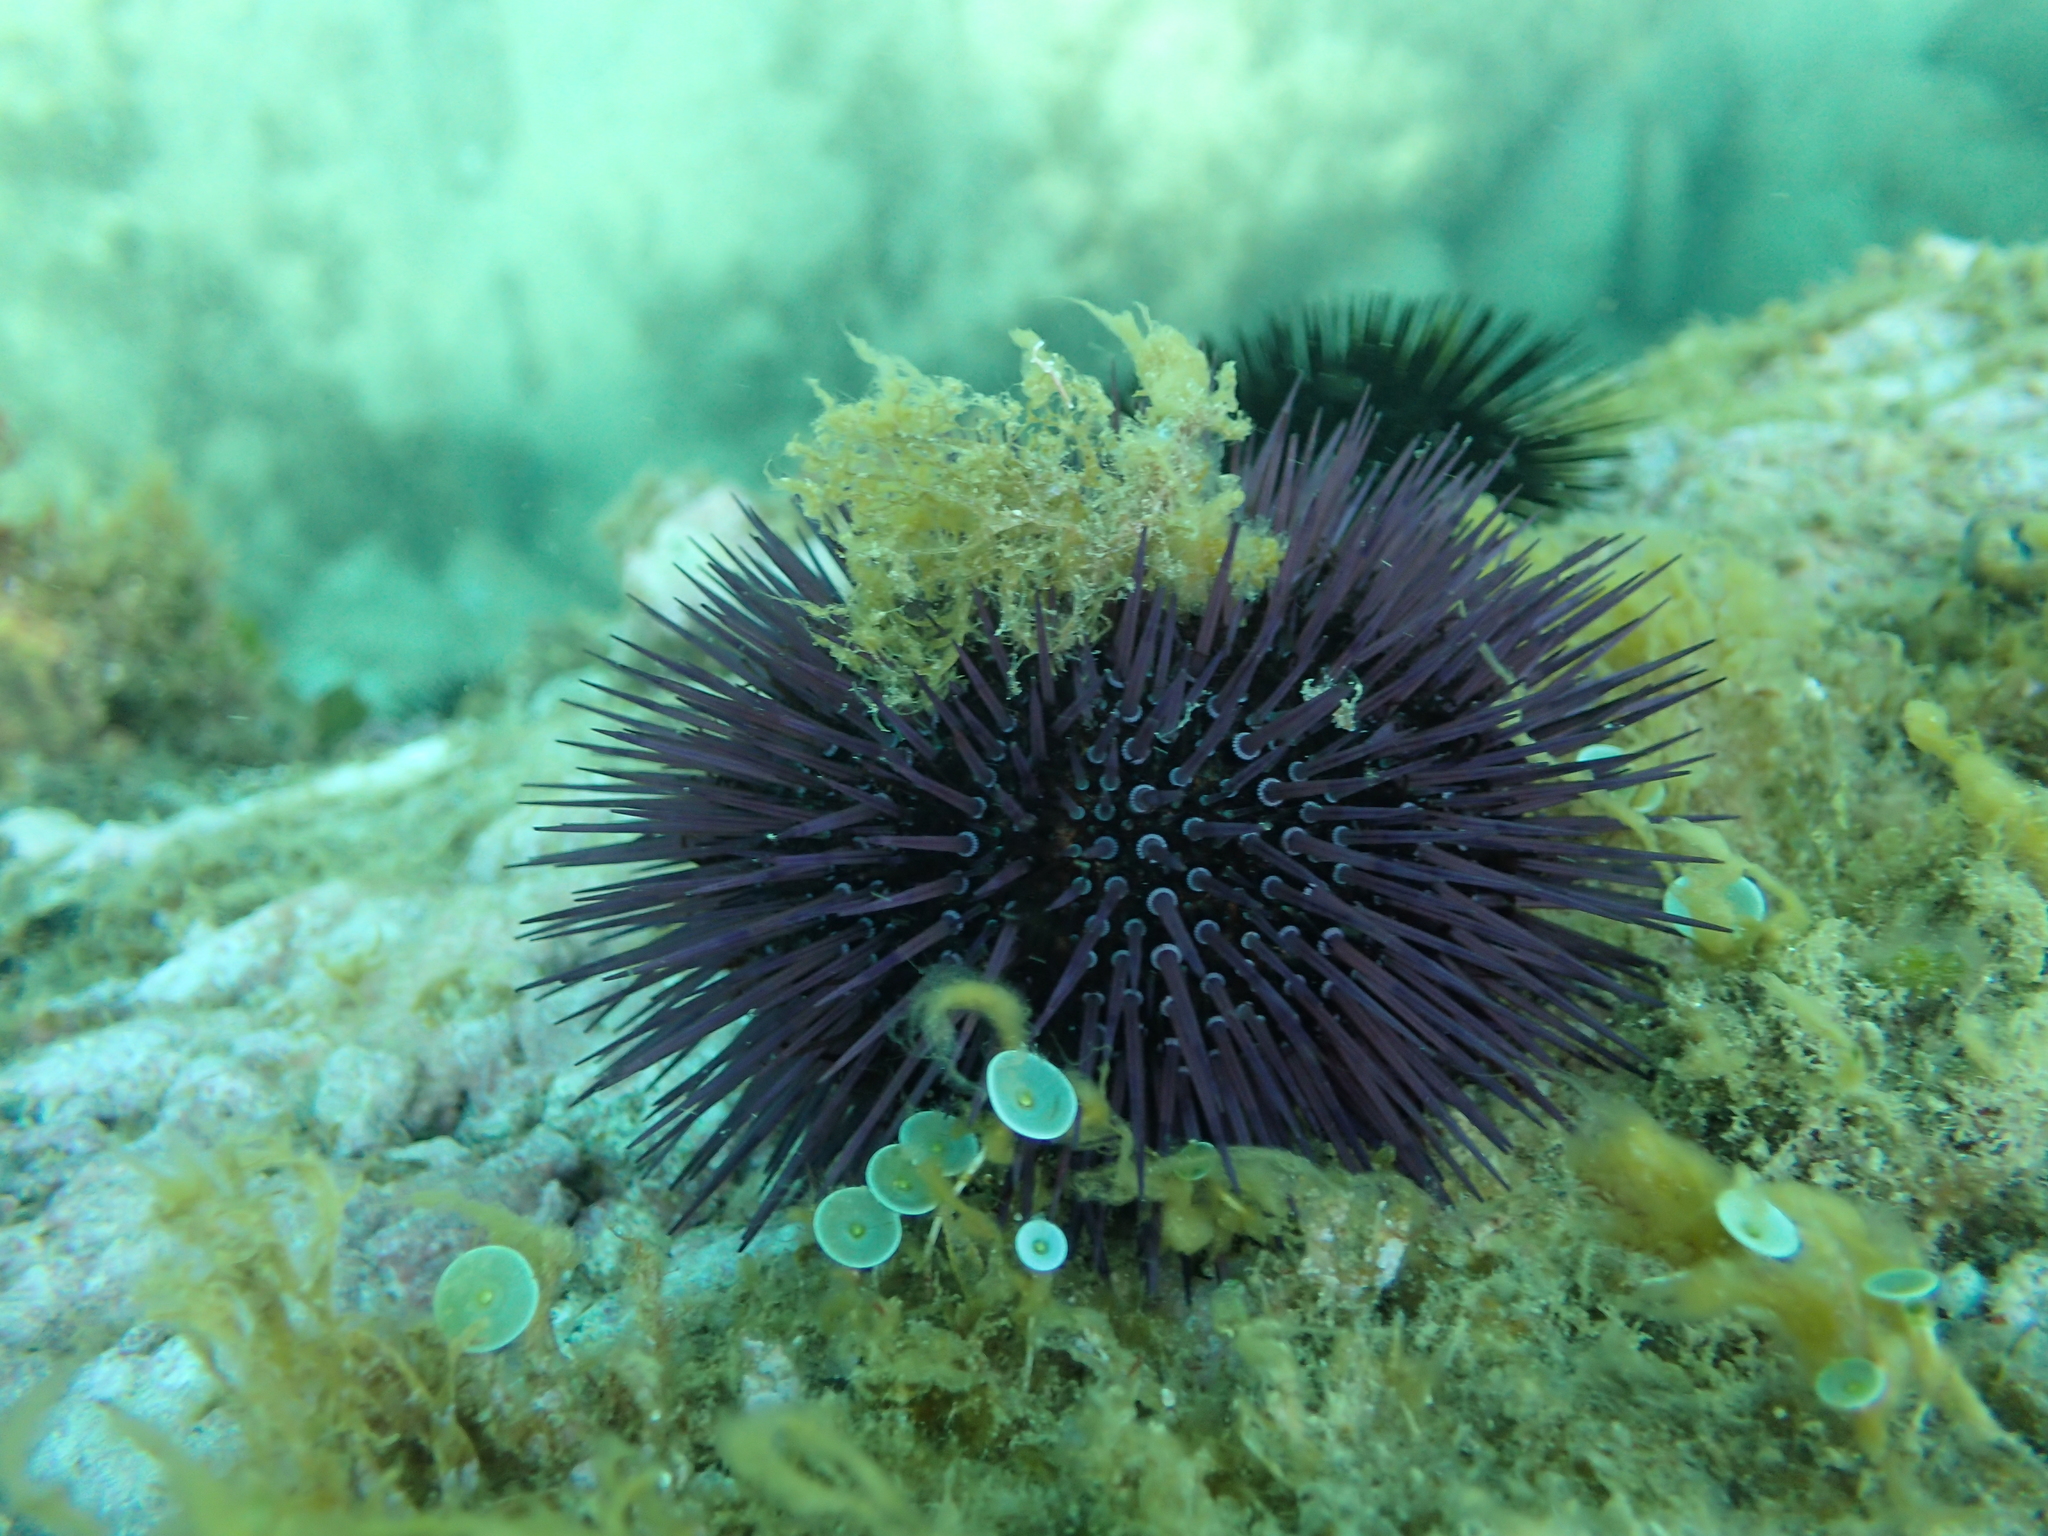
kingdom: Animalia
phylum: Echinodermata
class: Echinoidea
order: Camarodonta
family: Parechinidae
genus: Paracentrotus
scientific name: Paracentrotus lividus
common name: Purple sea urchin
